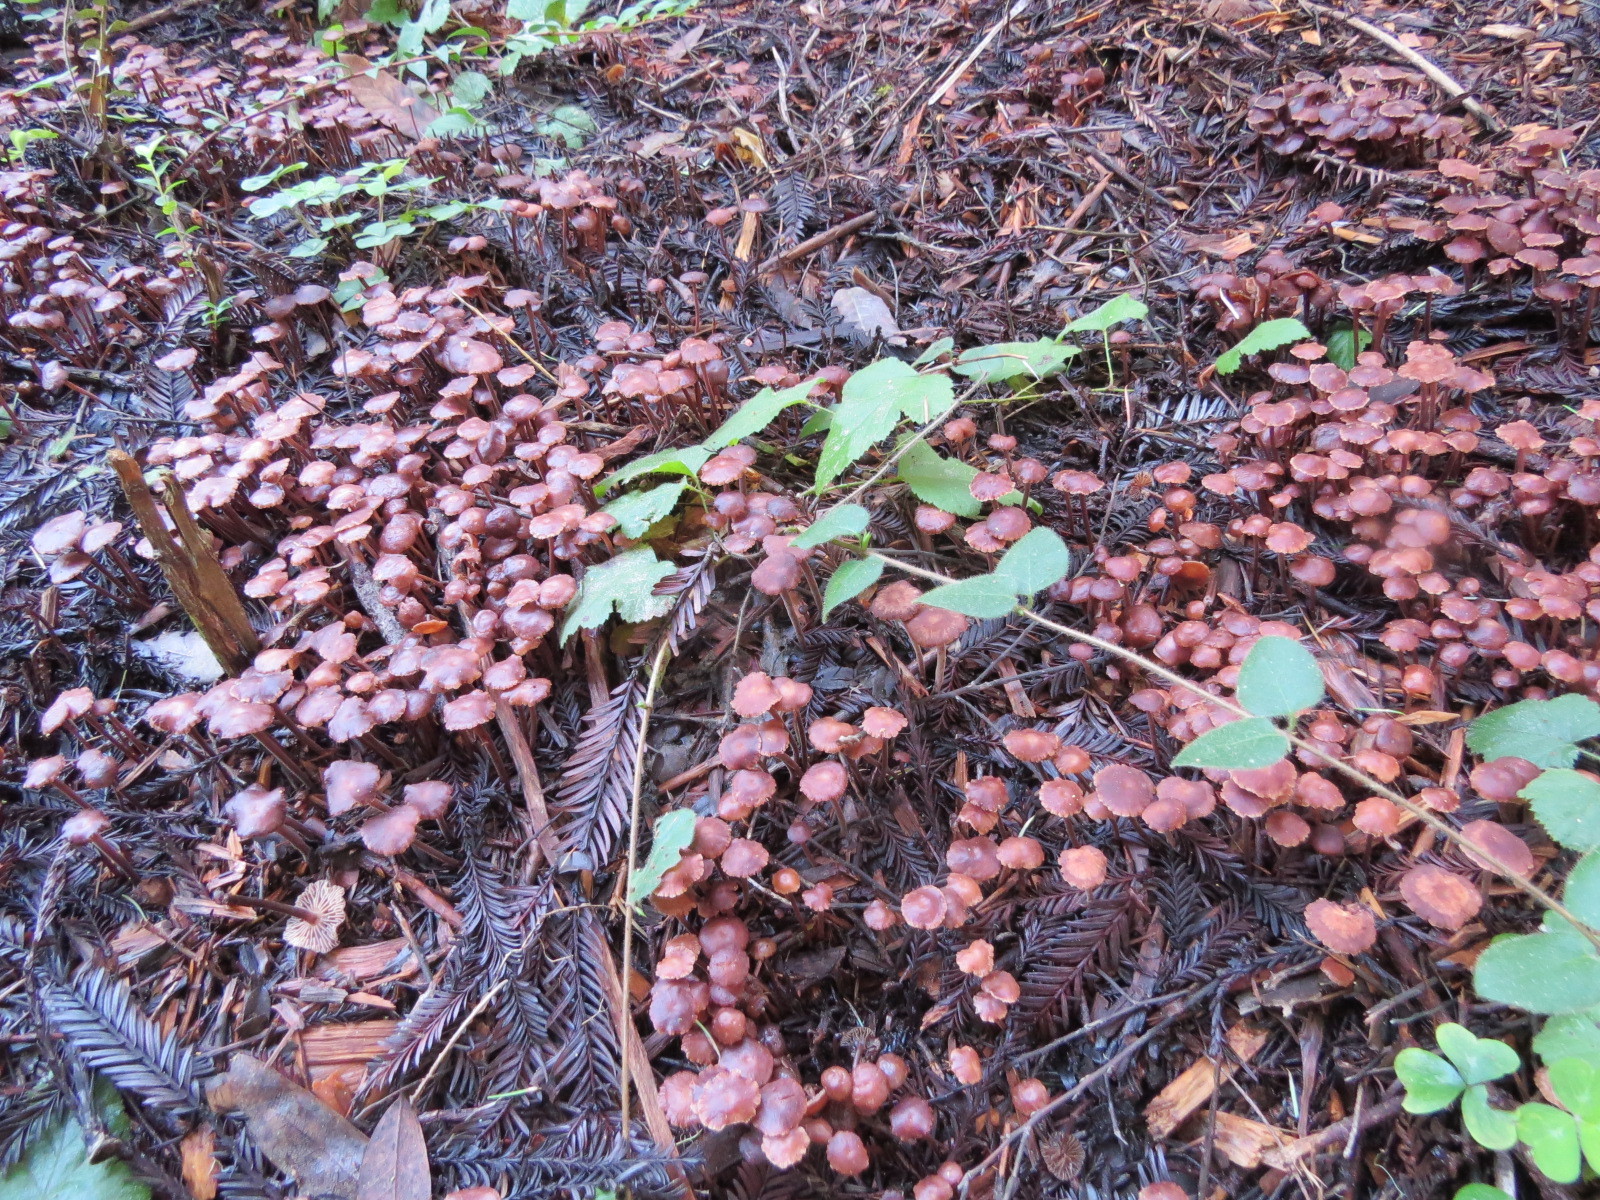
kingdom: Fungi
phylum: Basidiomycota
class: Agaricomycetes
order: Agaricales
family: Omphalotaceae
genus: Collybiopsis
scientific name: Collybiopsis villosipes
